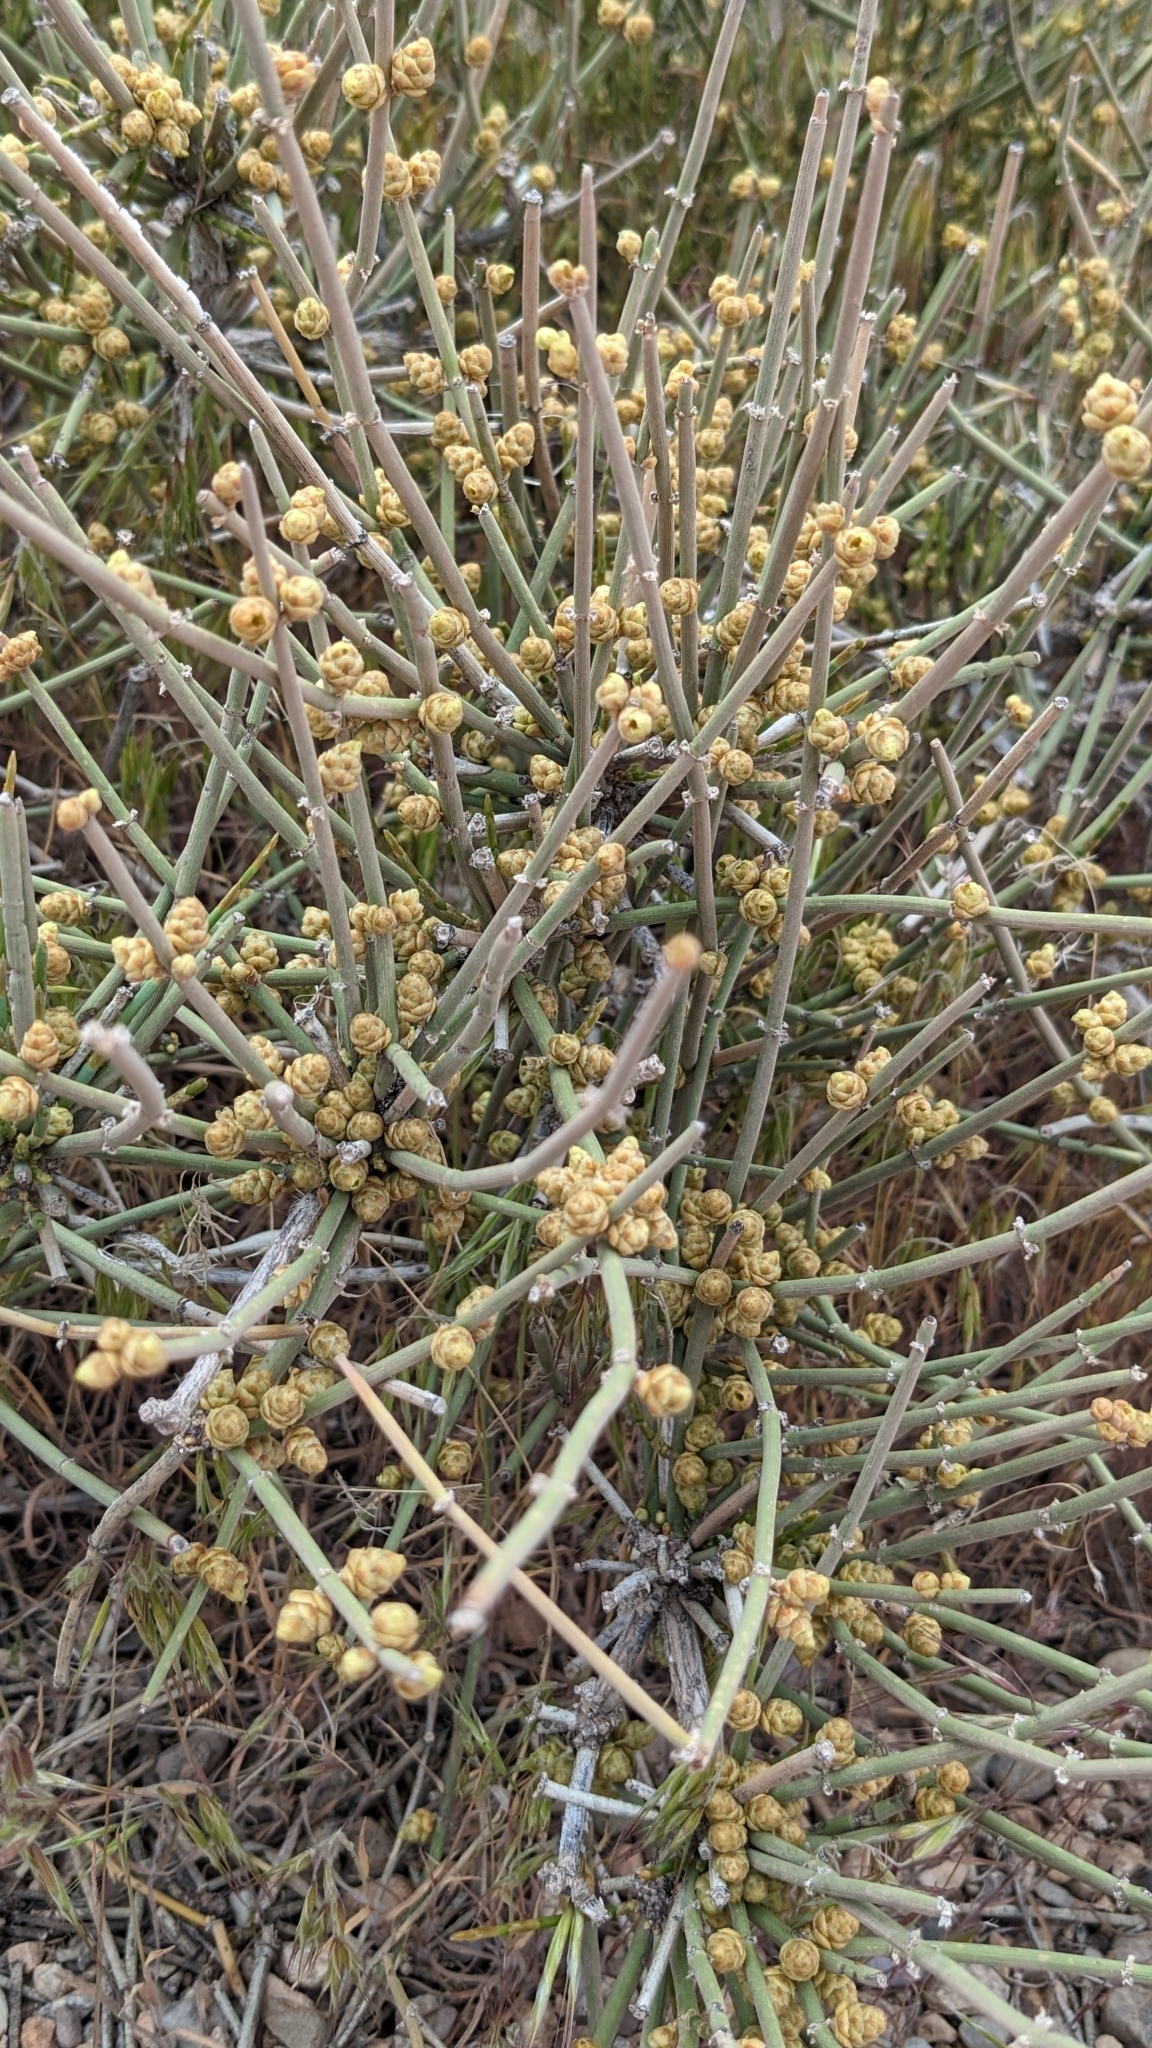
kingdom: Plantae
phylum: Tracheophyta
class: Gnetopsida
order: Ephedrales
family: Ephedraceae
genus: Ephedra
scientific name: Ephedra torreyana
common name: Torrey ephedra
